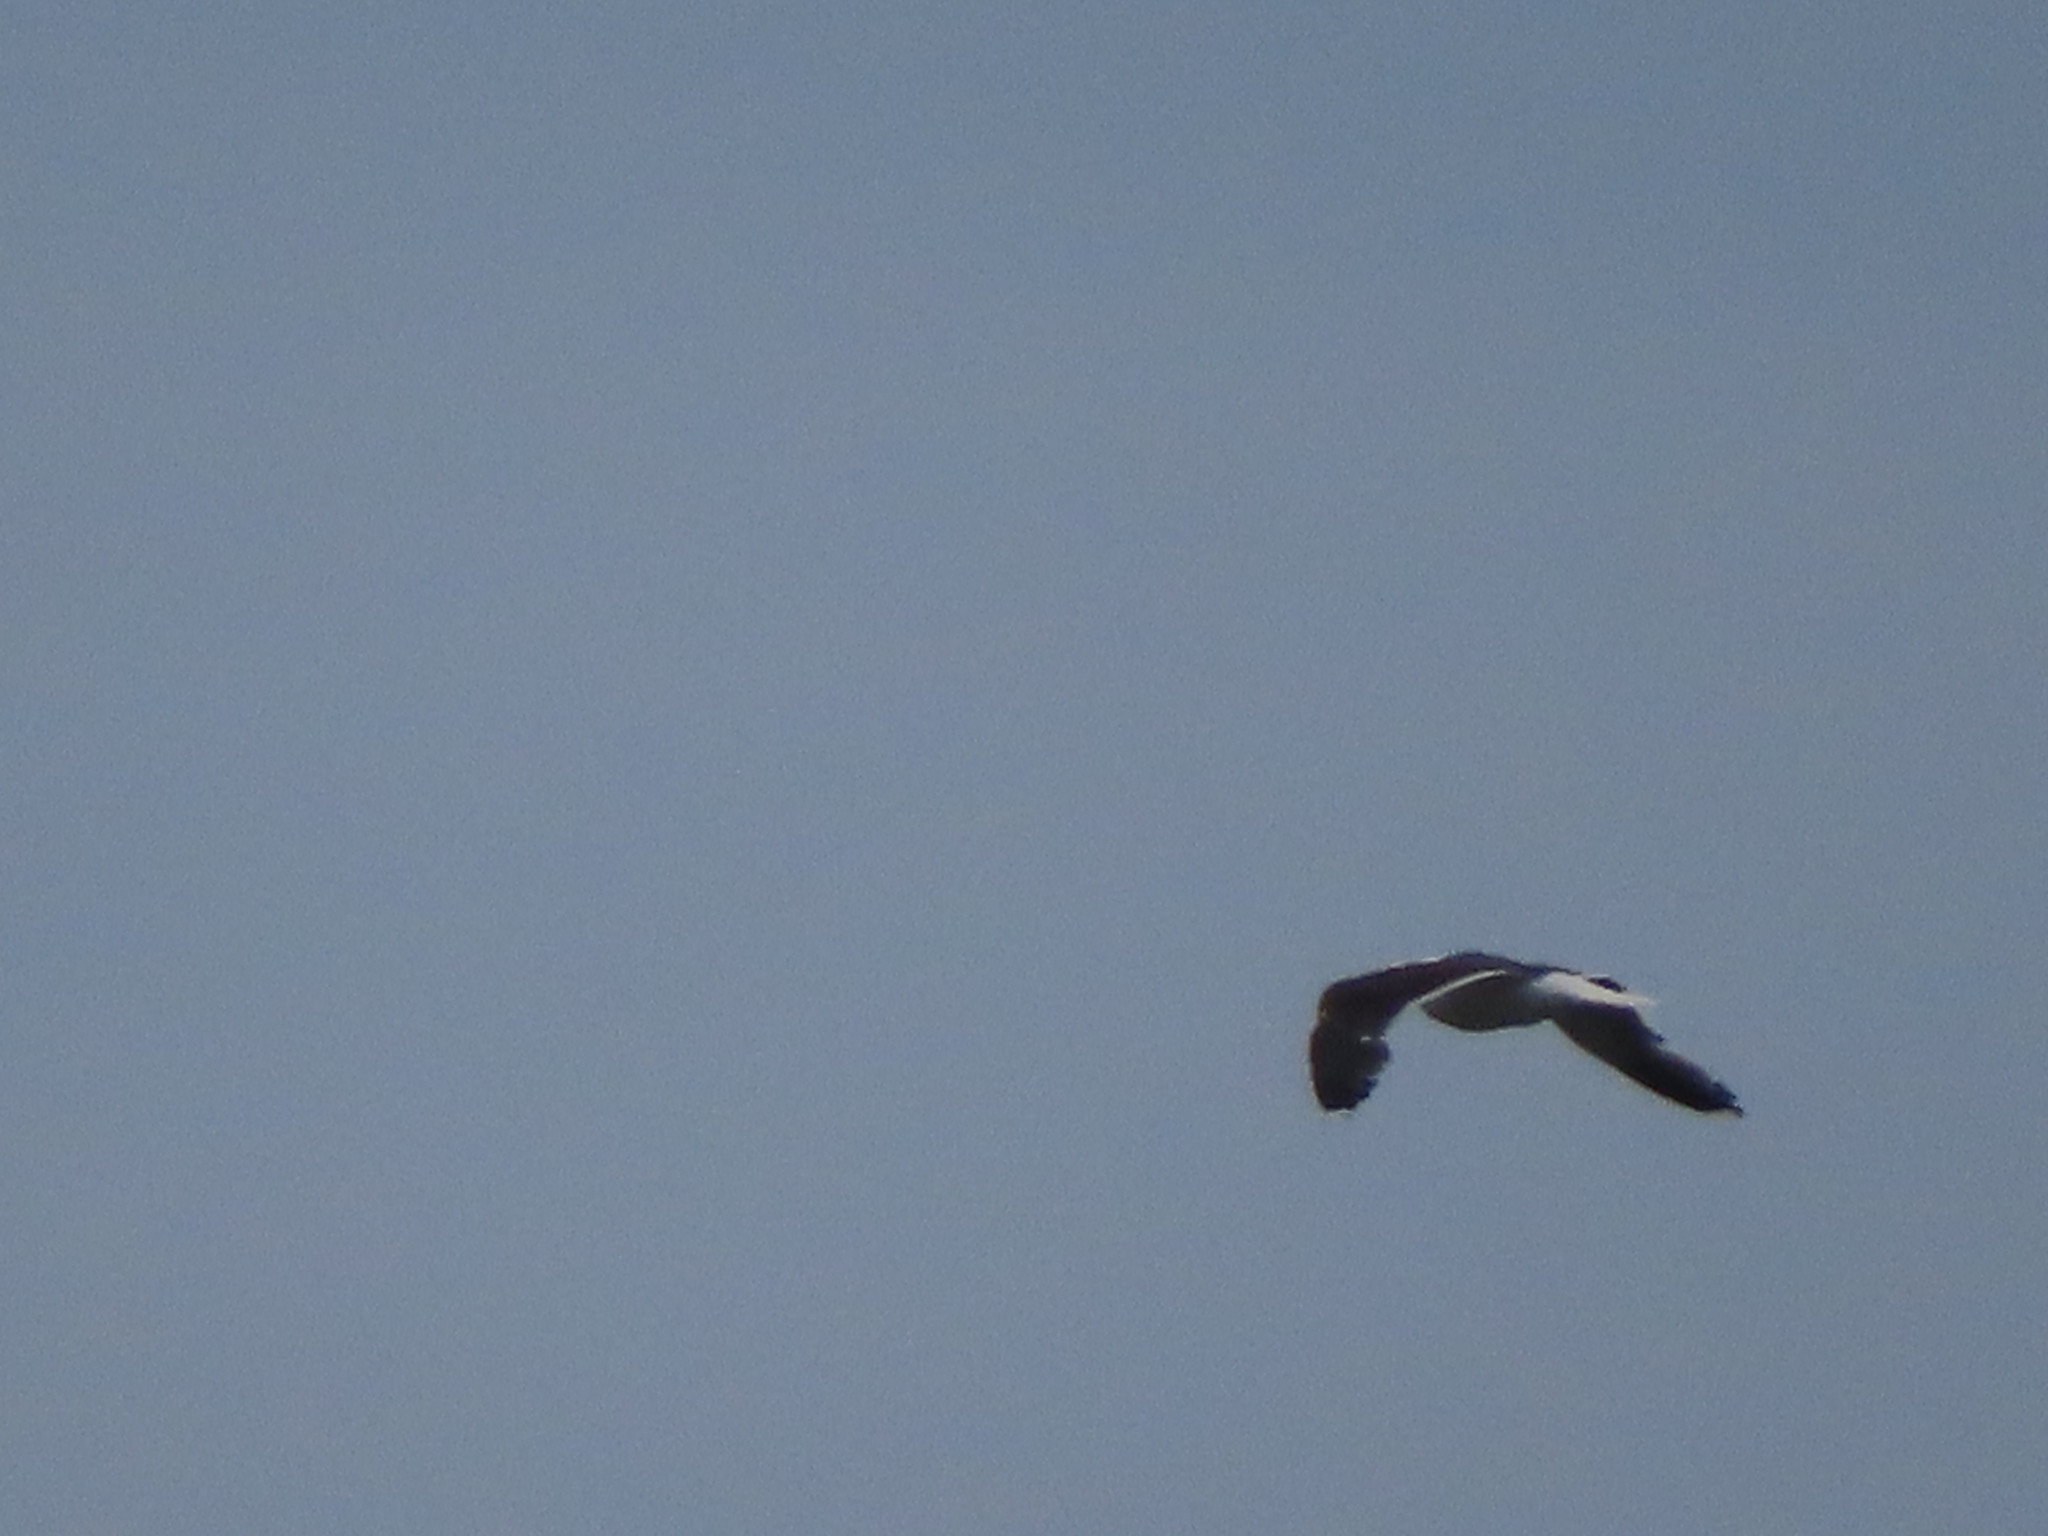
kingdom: Animalia
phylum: Chordata
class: Aves
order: Charadriiformes
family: Laridae
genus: Larus
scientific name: Larus marinus
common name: Great black-backed gull
